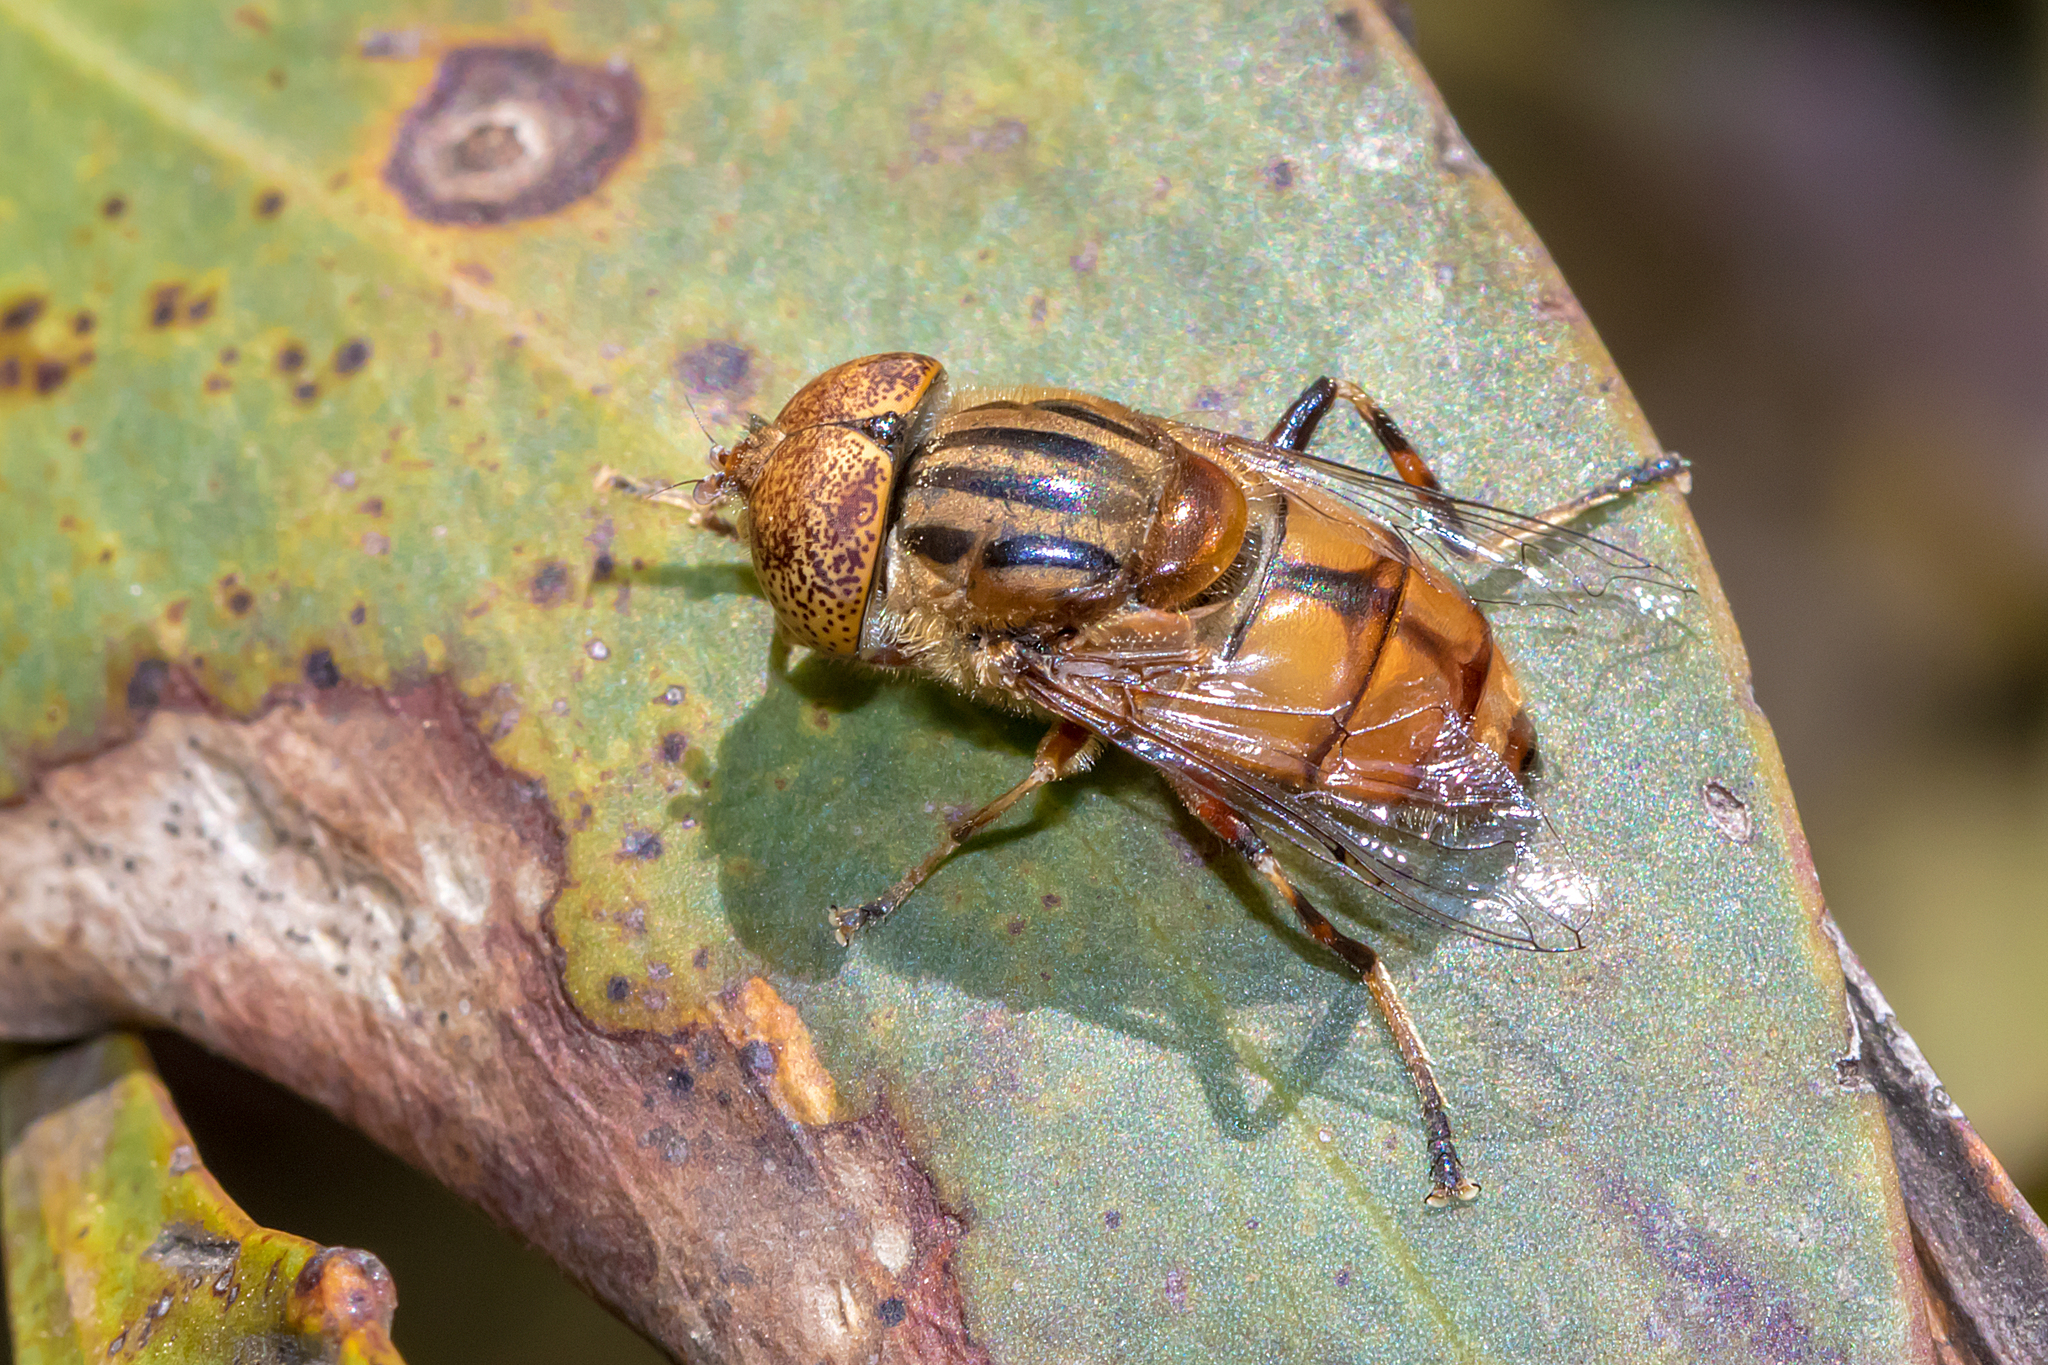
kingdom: Animalia
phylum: Arthropoda
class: Insecta
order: Diptera
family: Syrphidae
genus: Eristalinus
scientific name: Eristalinus punctulatus
